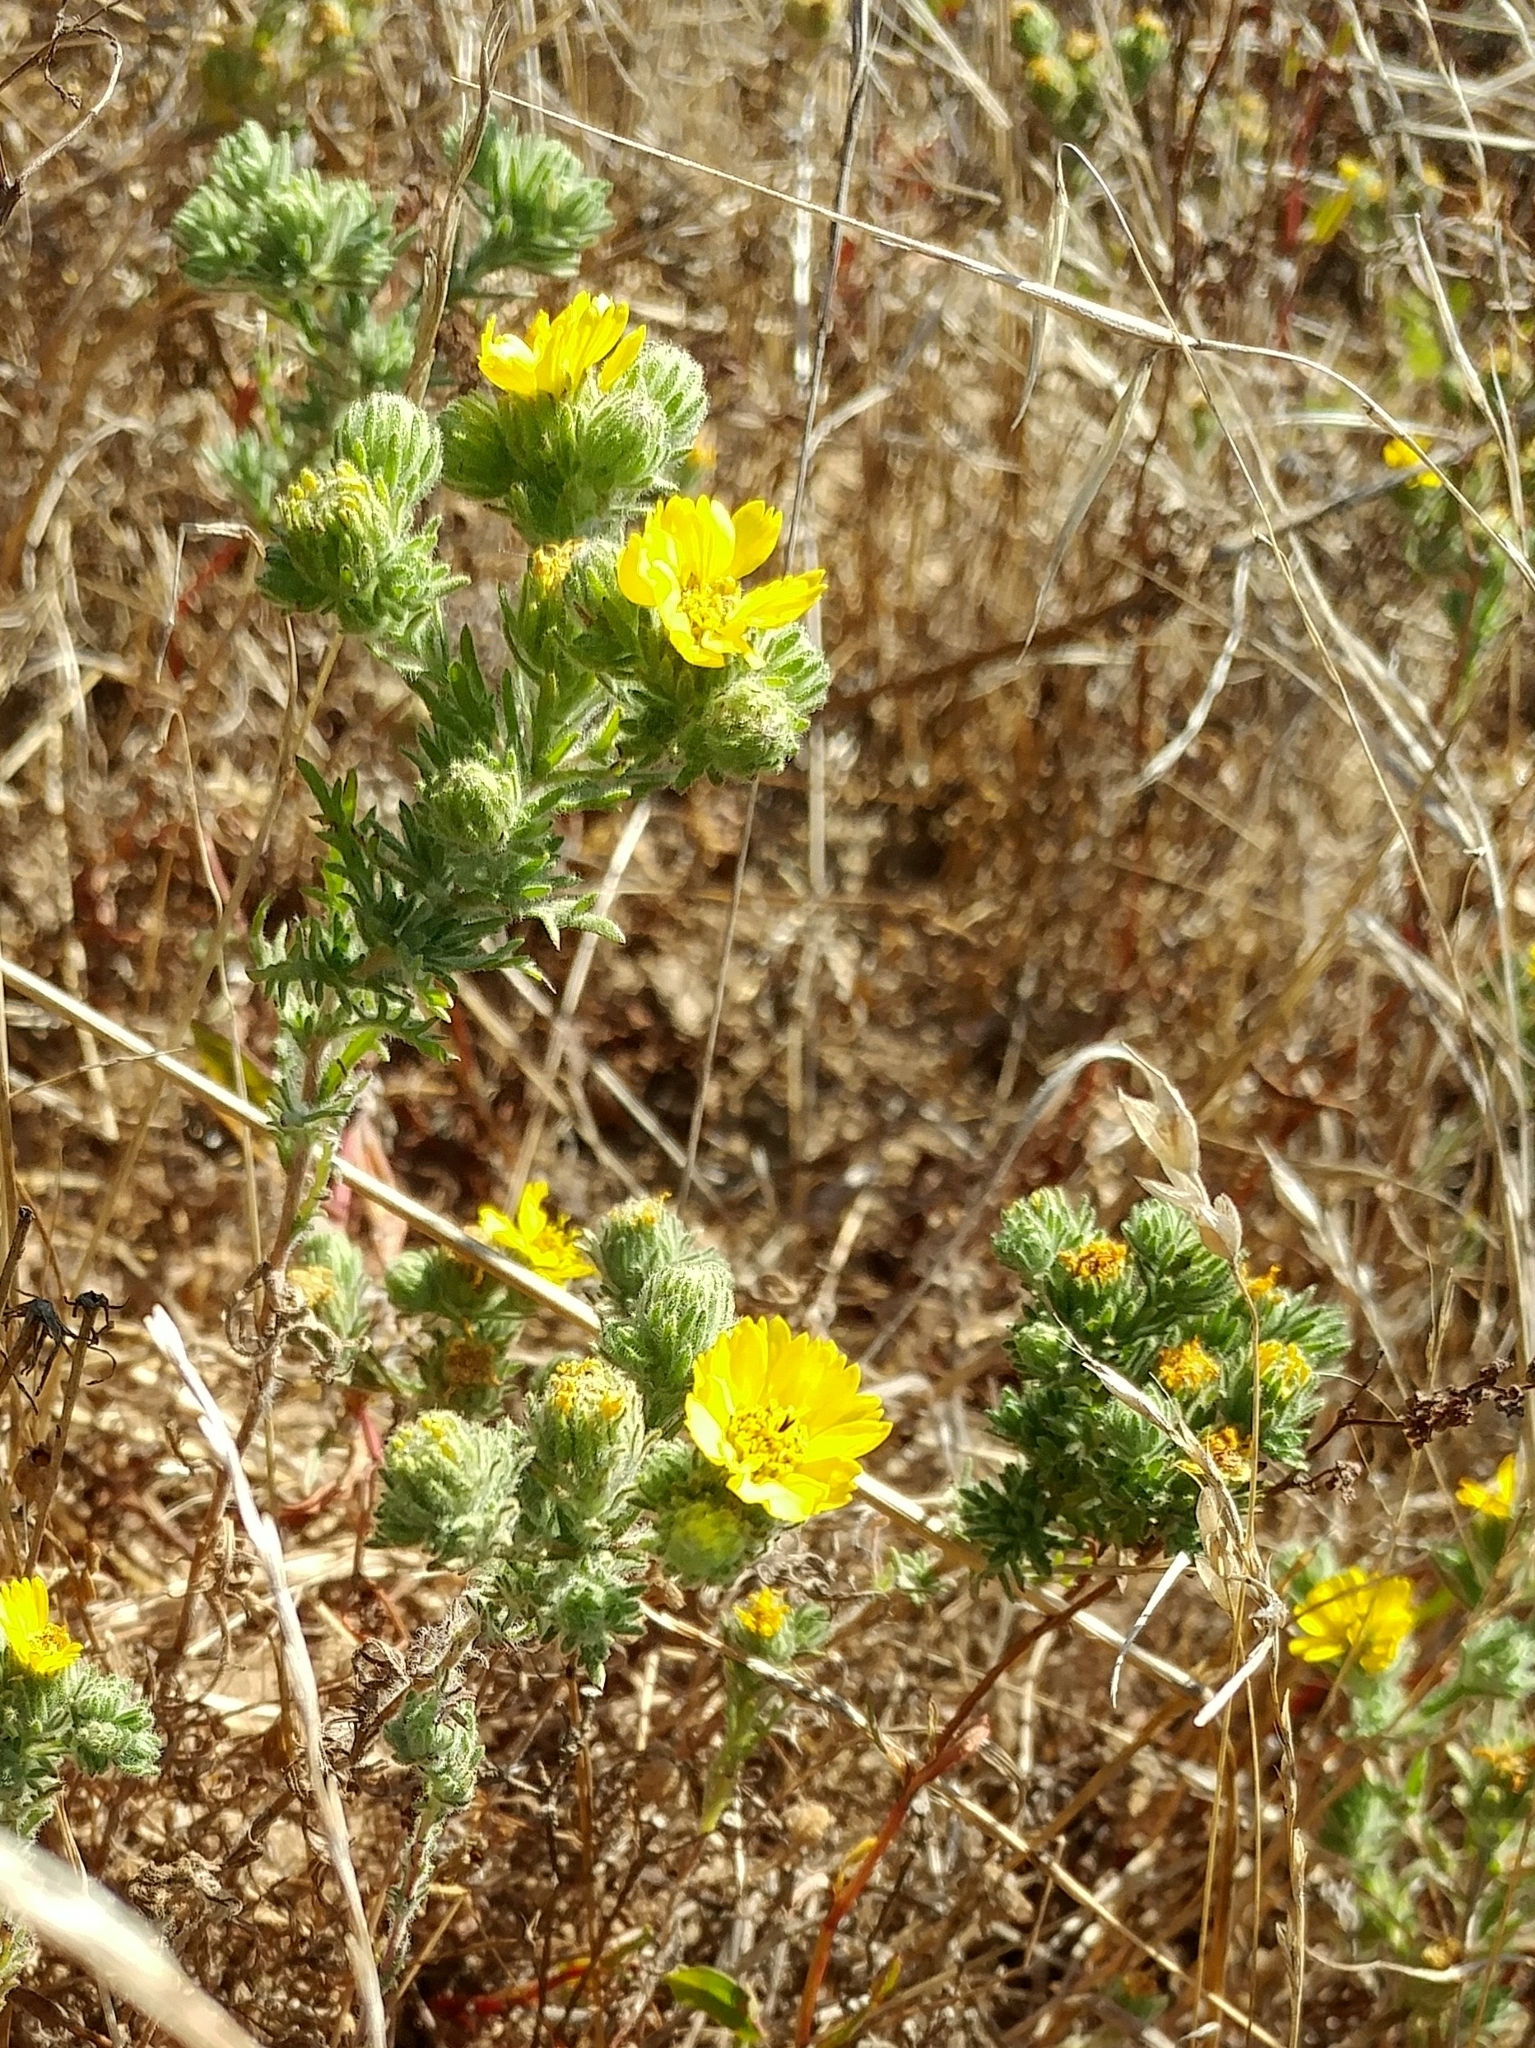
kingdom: Plantae
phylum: Tracheophyta
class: Magnoliopsida
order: Asterales
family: Asteraceae
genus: Deinandra
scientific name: Deinandra increscens
